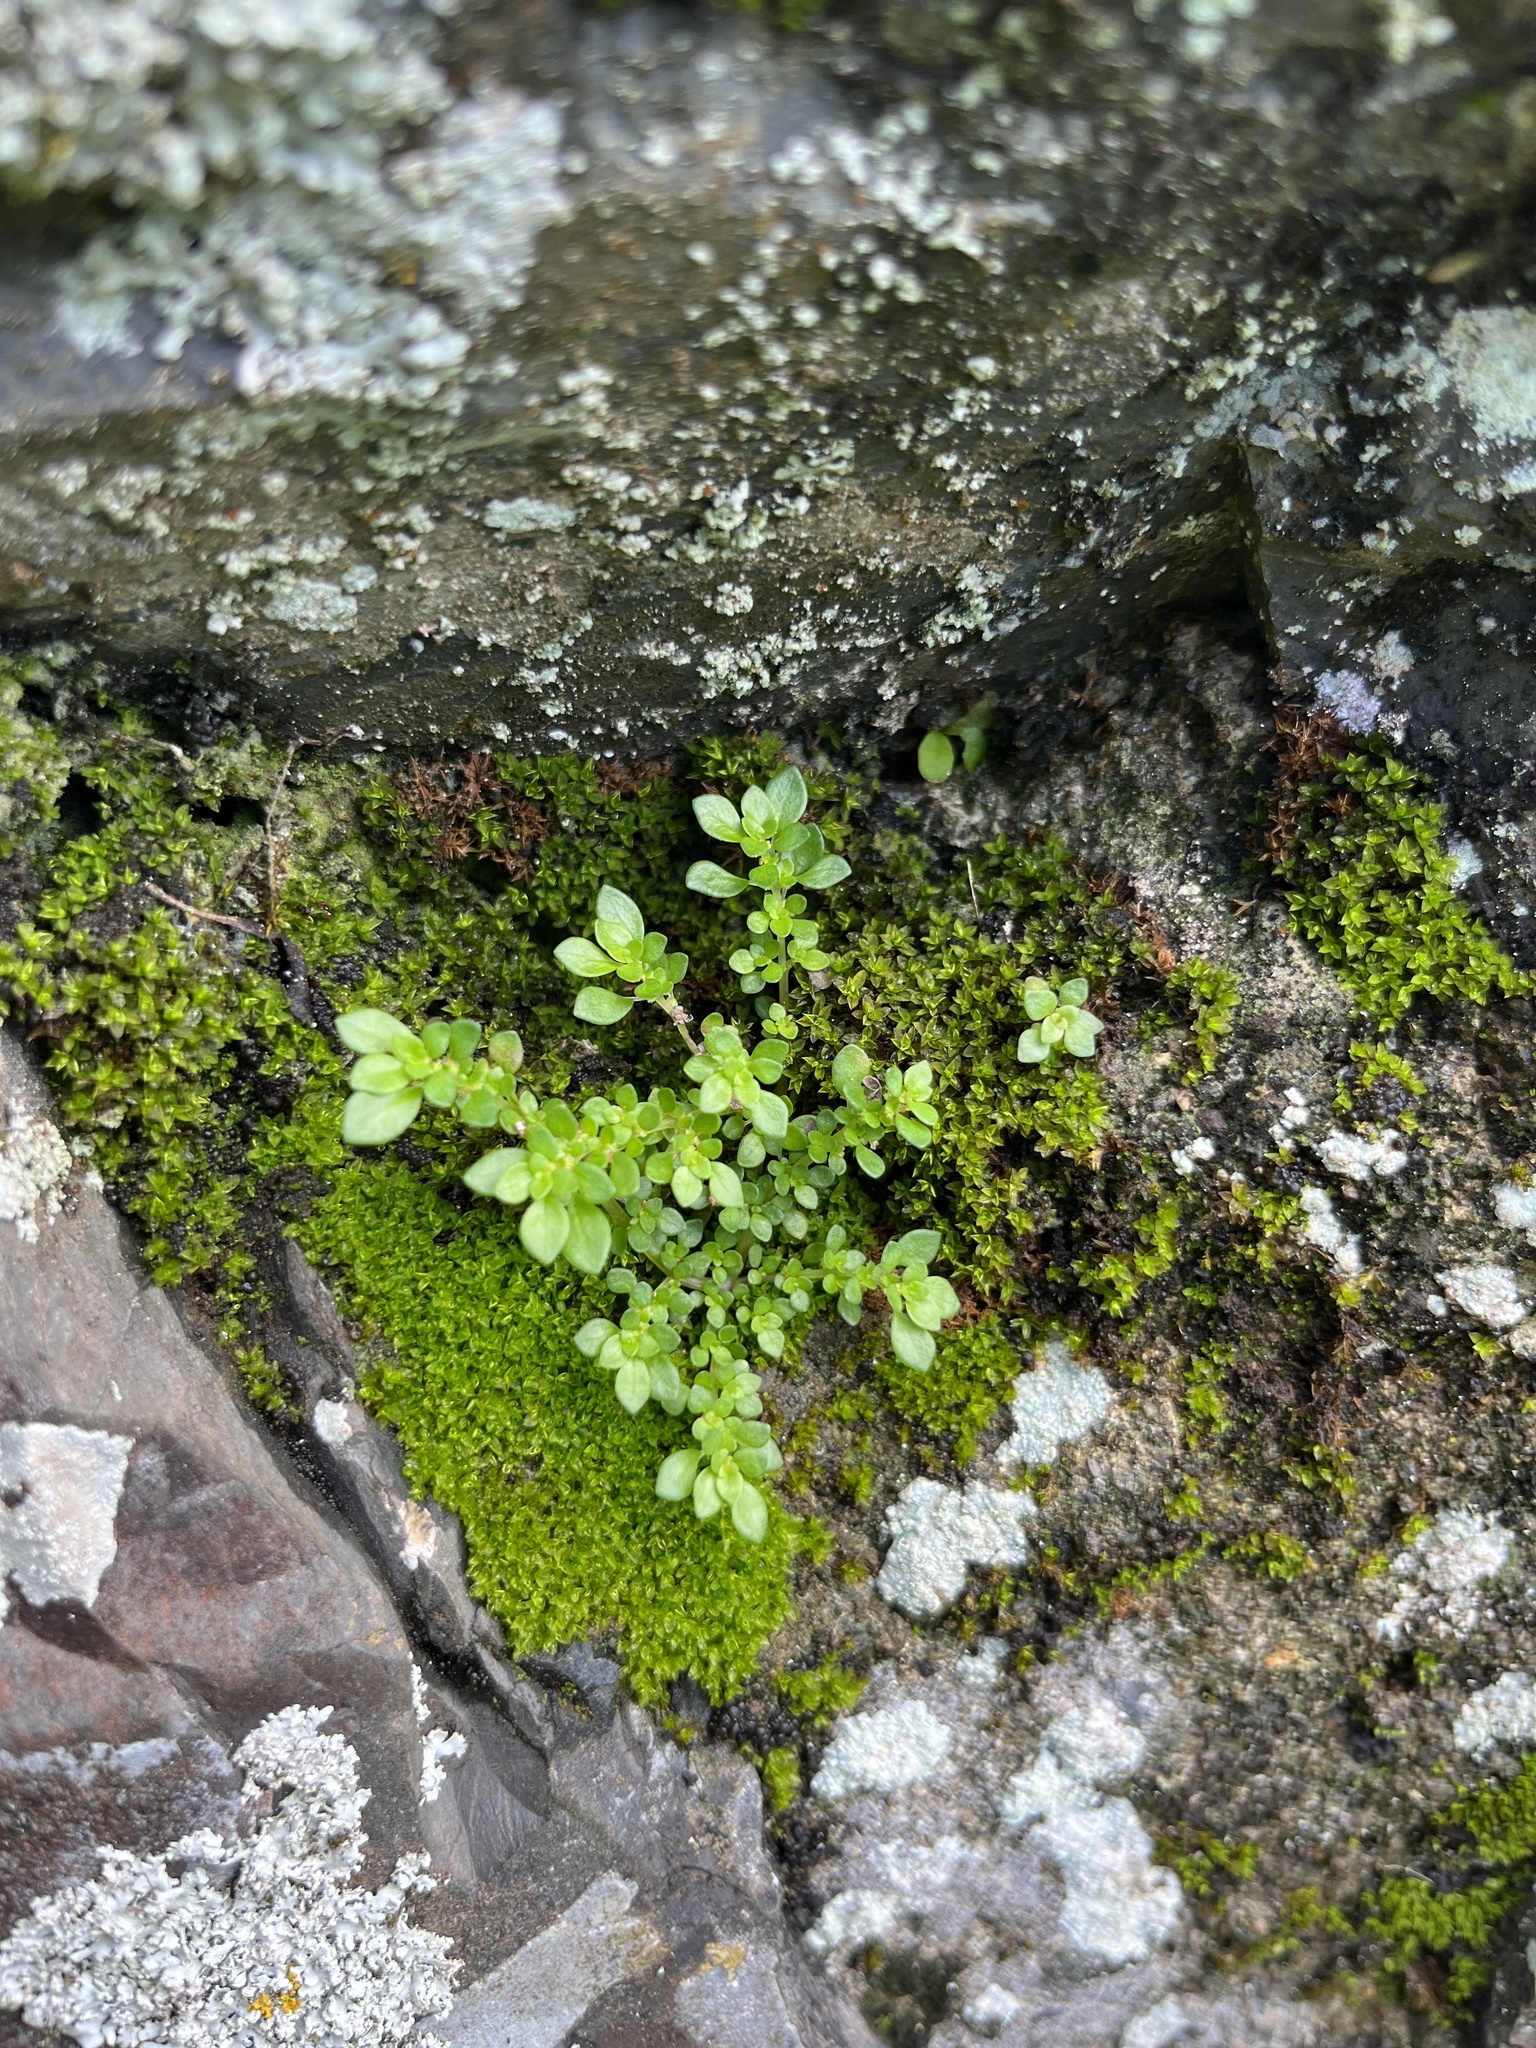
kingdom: Plantae
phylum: Tracheophyta
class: Magnoliopsida
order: Rosales
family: Urticaceae
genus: Pilea
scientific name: Pilea microphylla
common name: Artillery-plant
